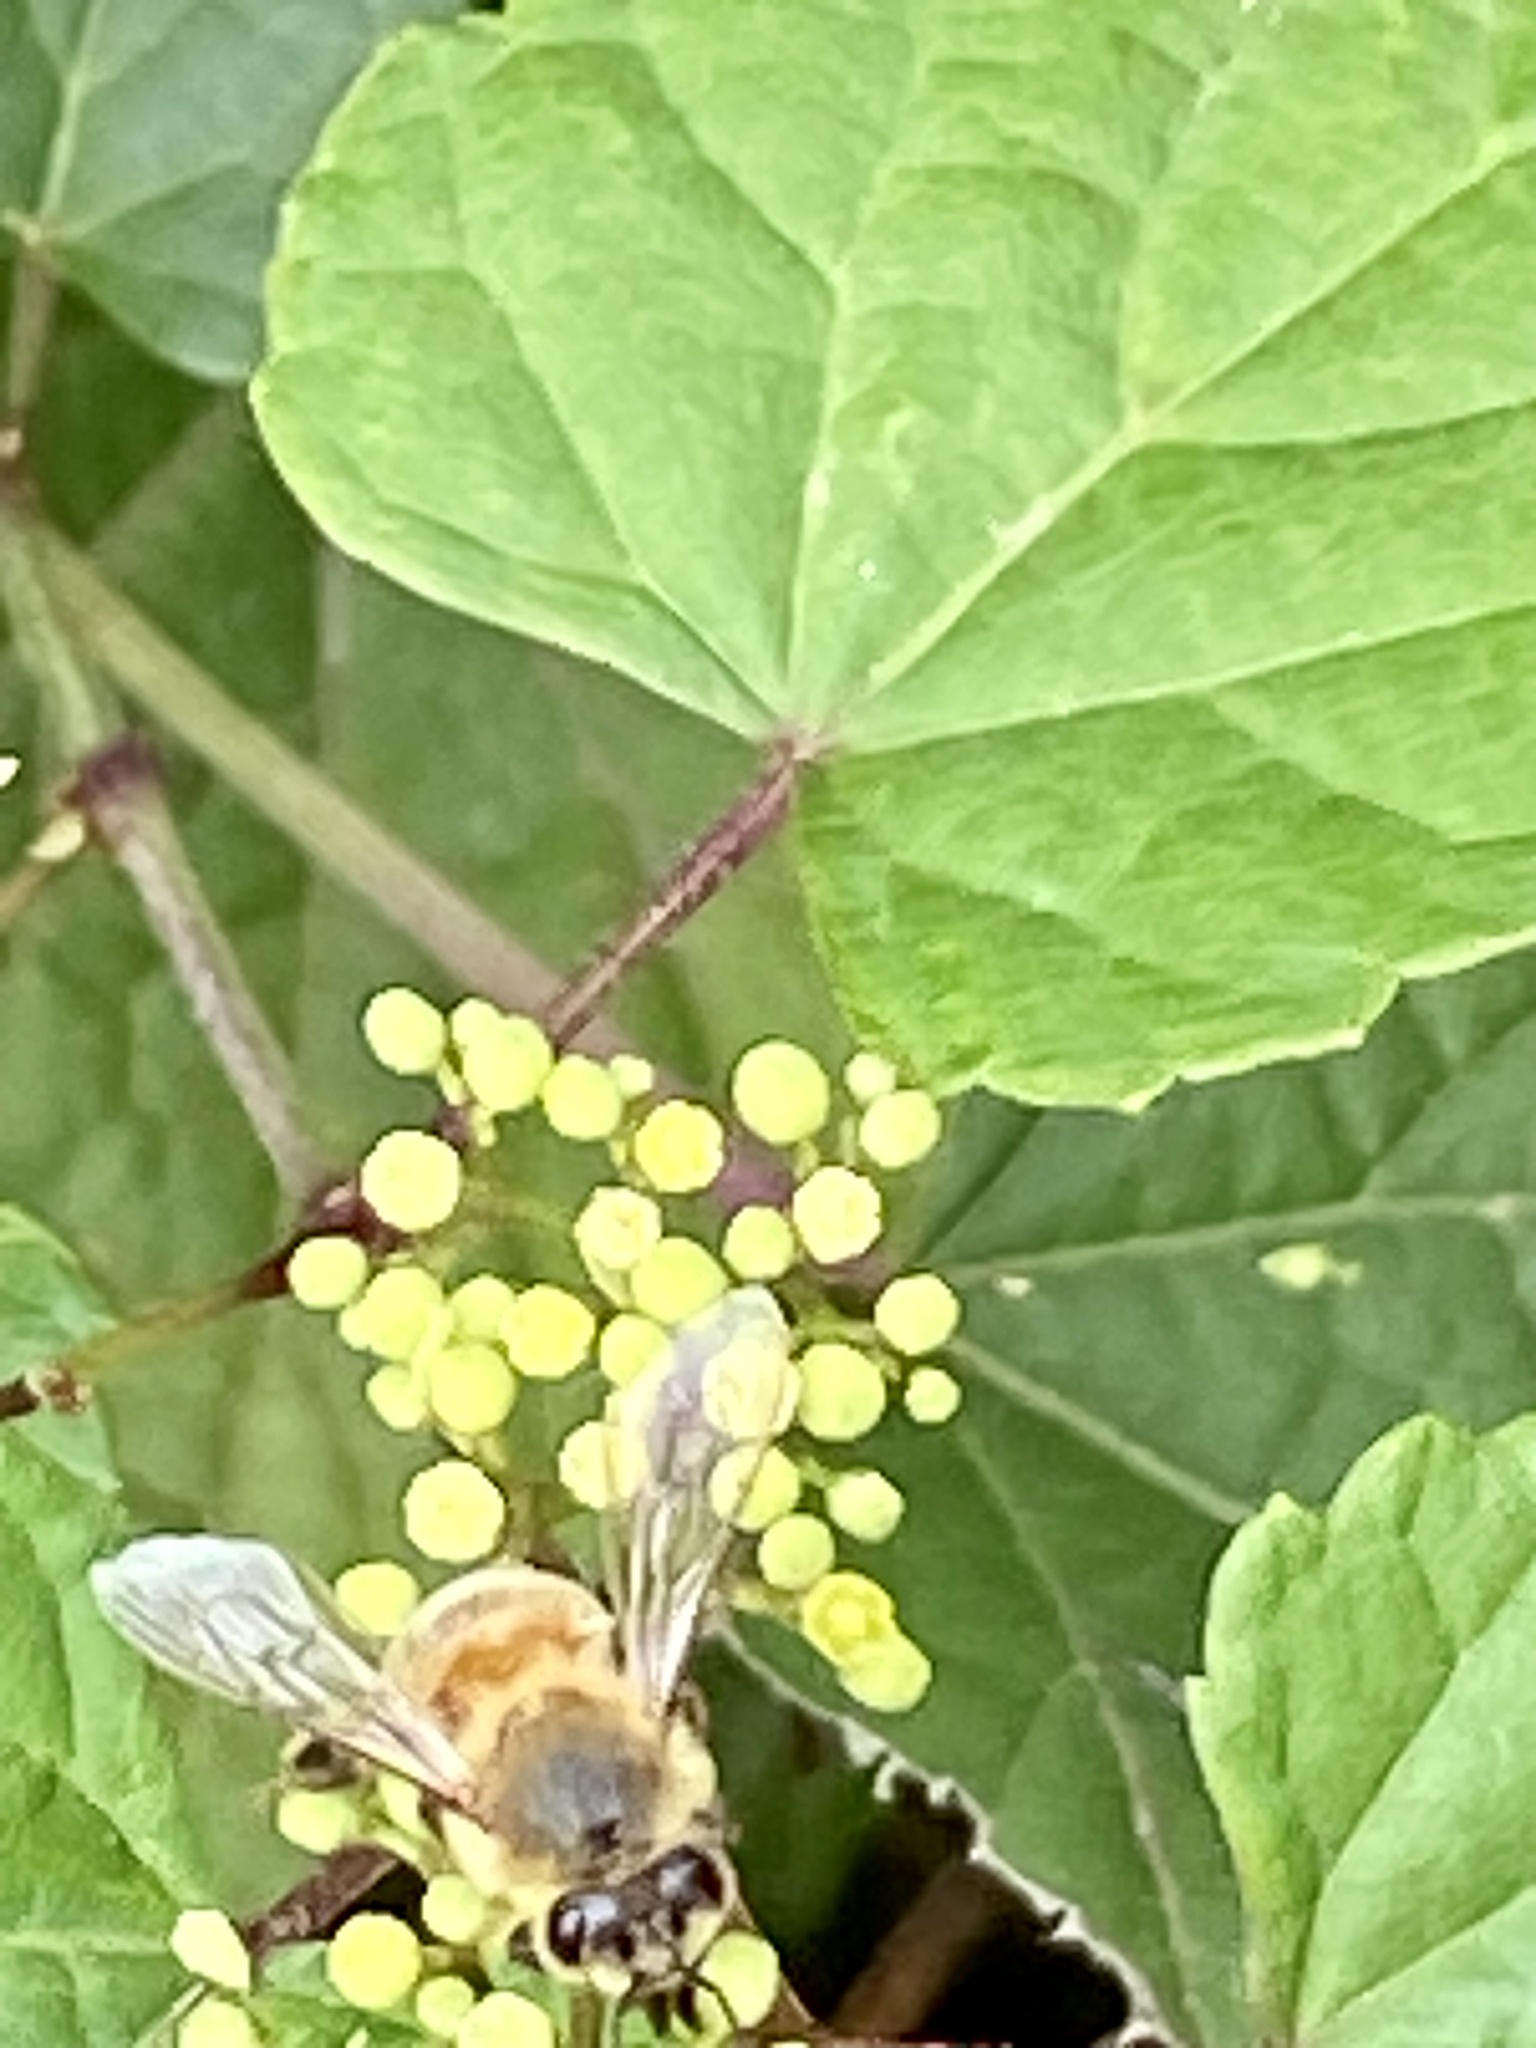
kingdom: Animalia
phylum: Arthropoda
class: Insecta
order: Hymenoptera
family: Apidae
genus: Apis
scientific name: Apis mellifera
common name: Honey bee
